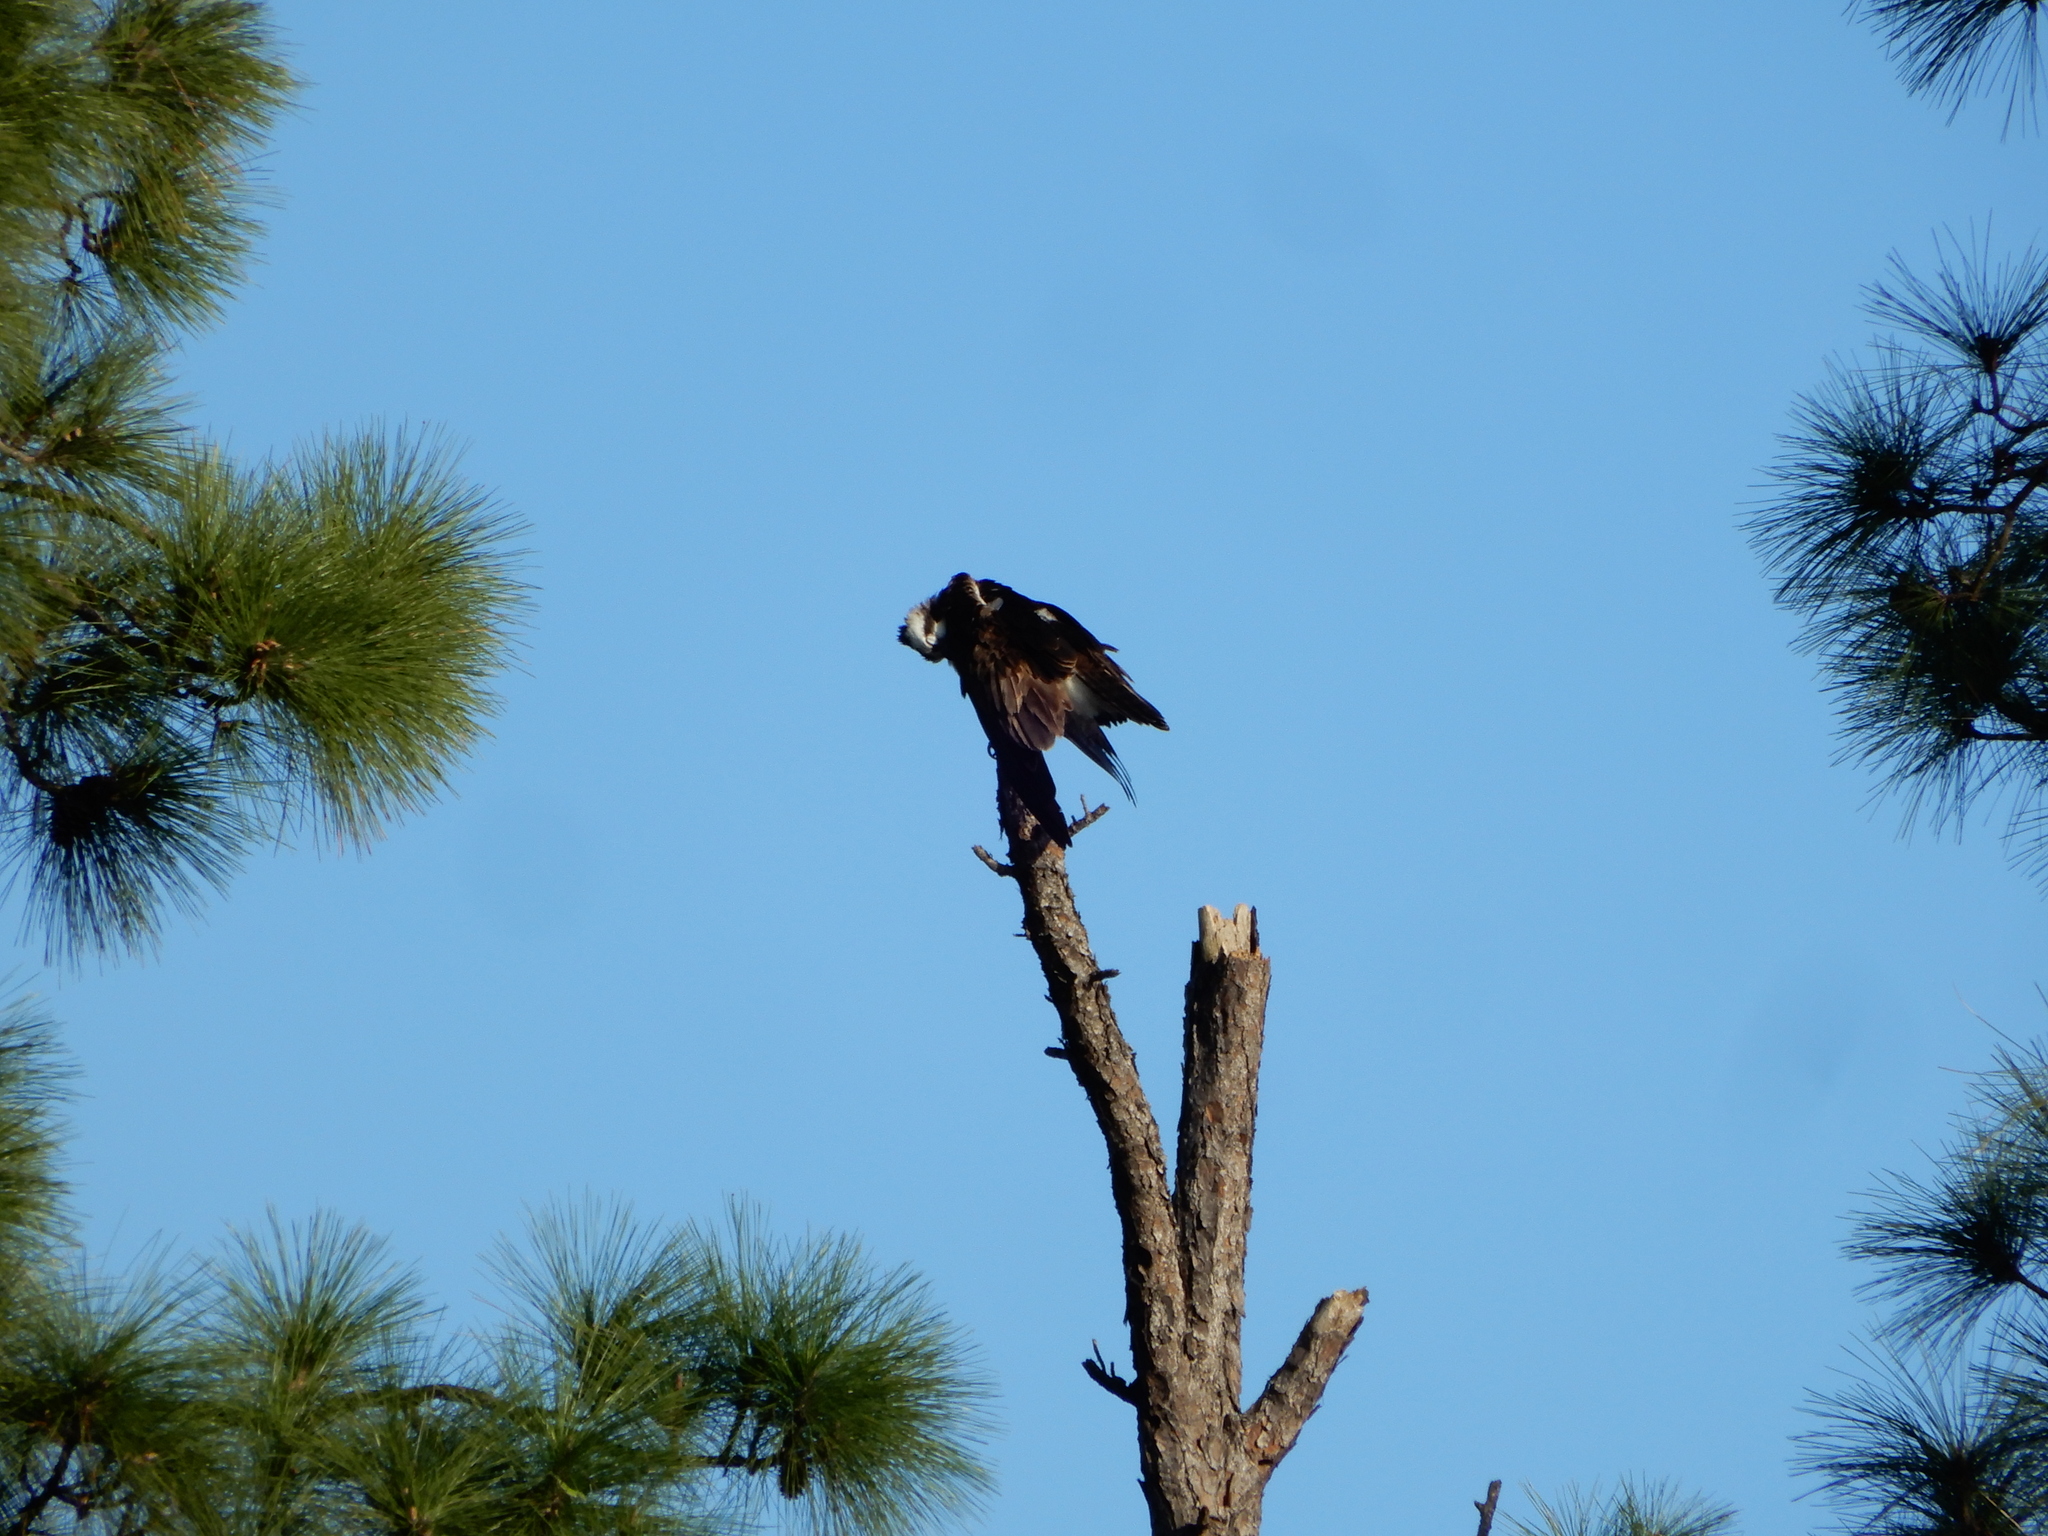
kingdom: Animalia
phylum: Chordata
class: Aves
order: Accipitriformes
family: Pandionidae
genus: Pandion
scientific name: Pandion haliaetus
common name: Osprey
